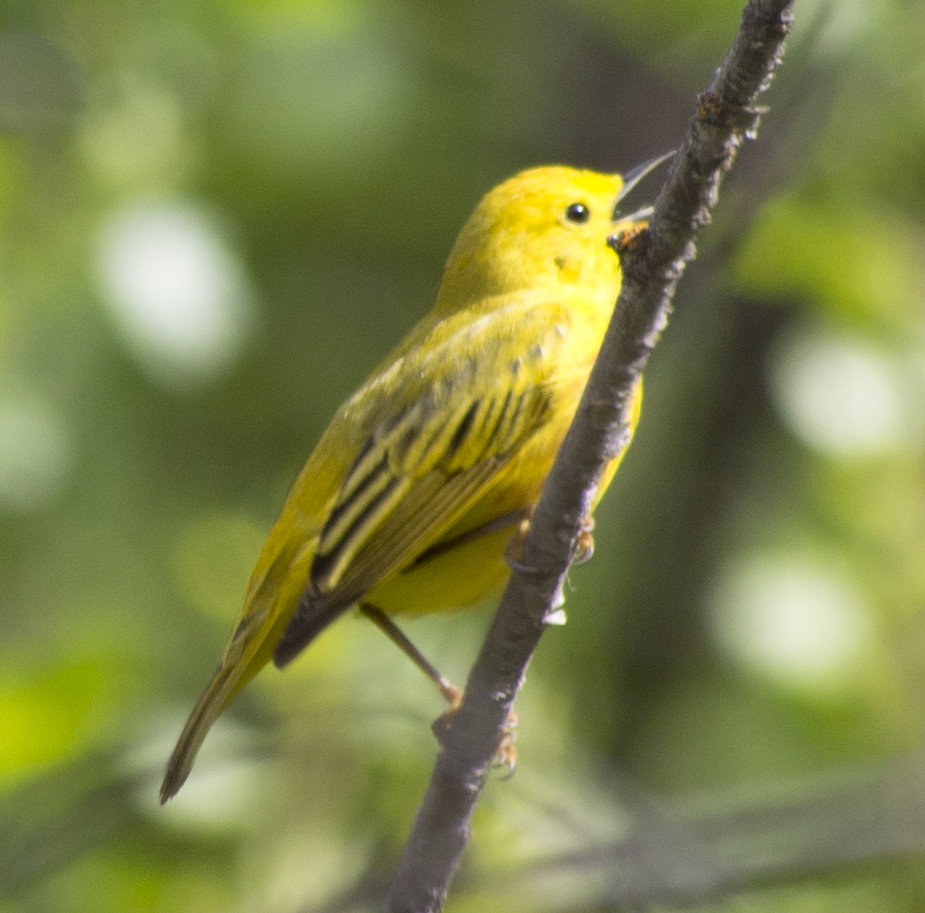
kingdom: Animalia
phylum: Chordata
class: Aves
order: Passeriformes
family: Parulidae
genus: Setophaga
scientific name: Setophaga petechia
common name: Yellow warbler
